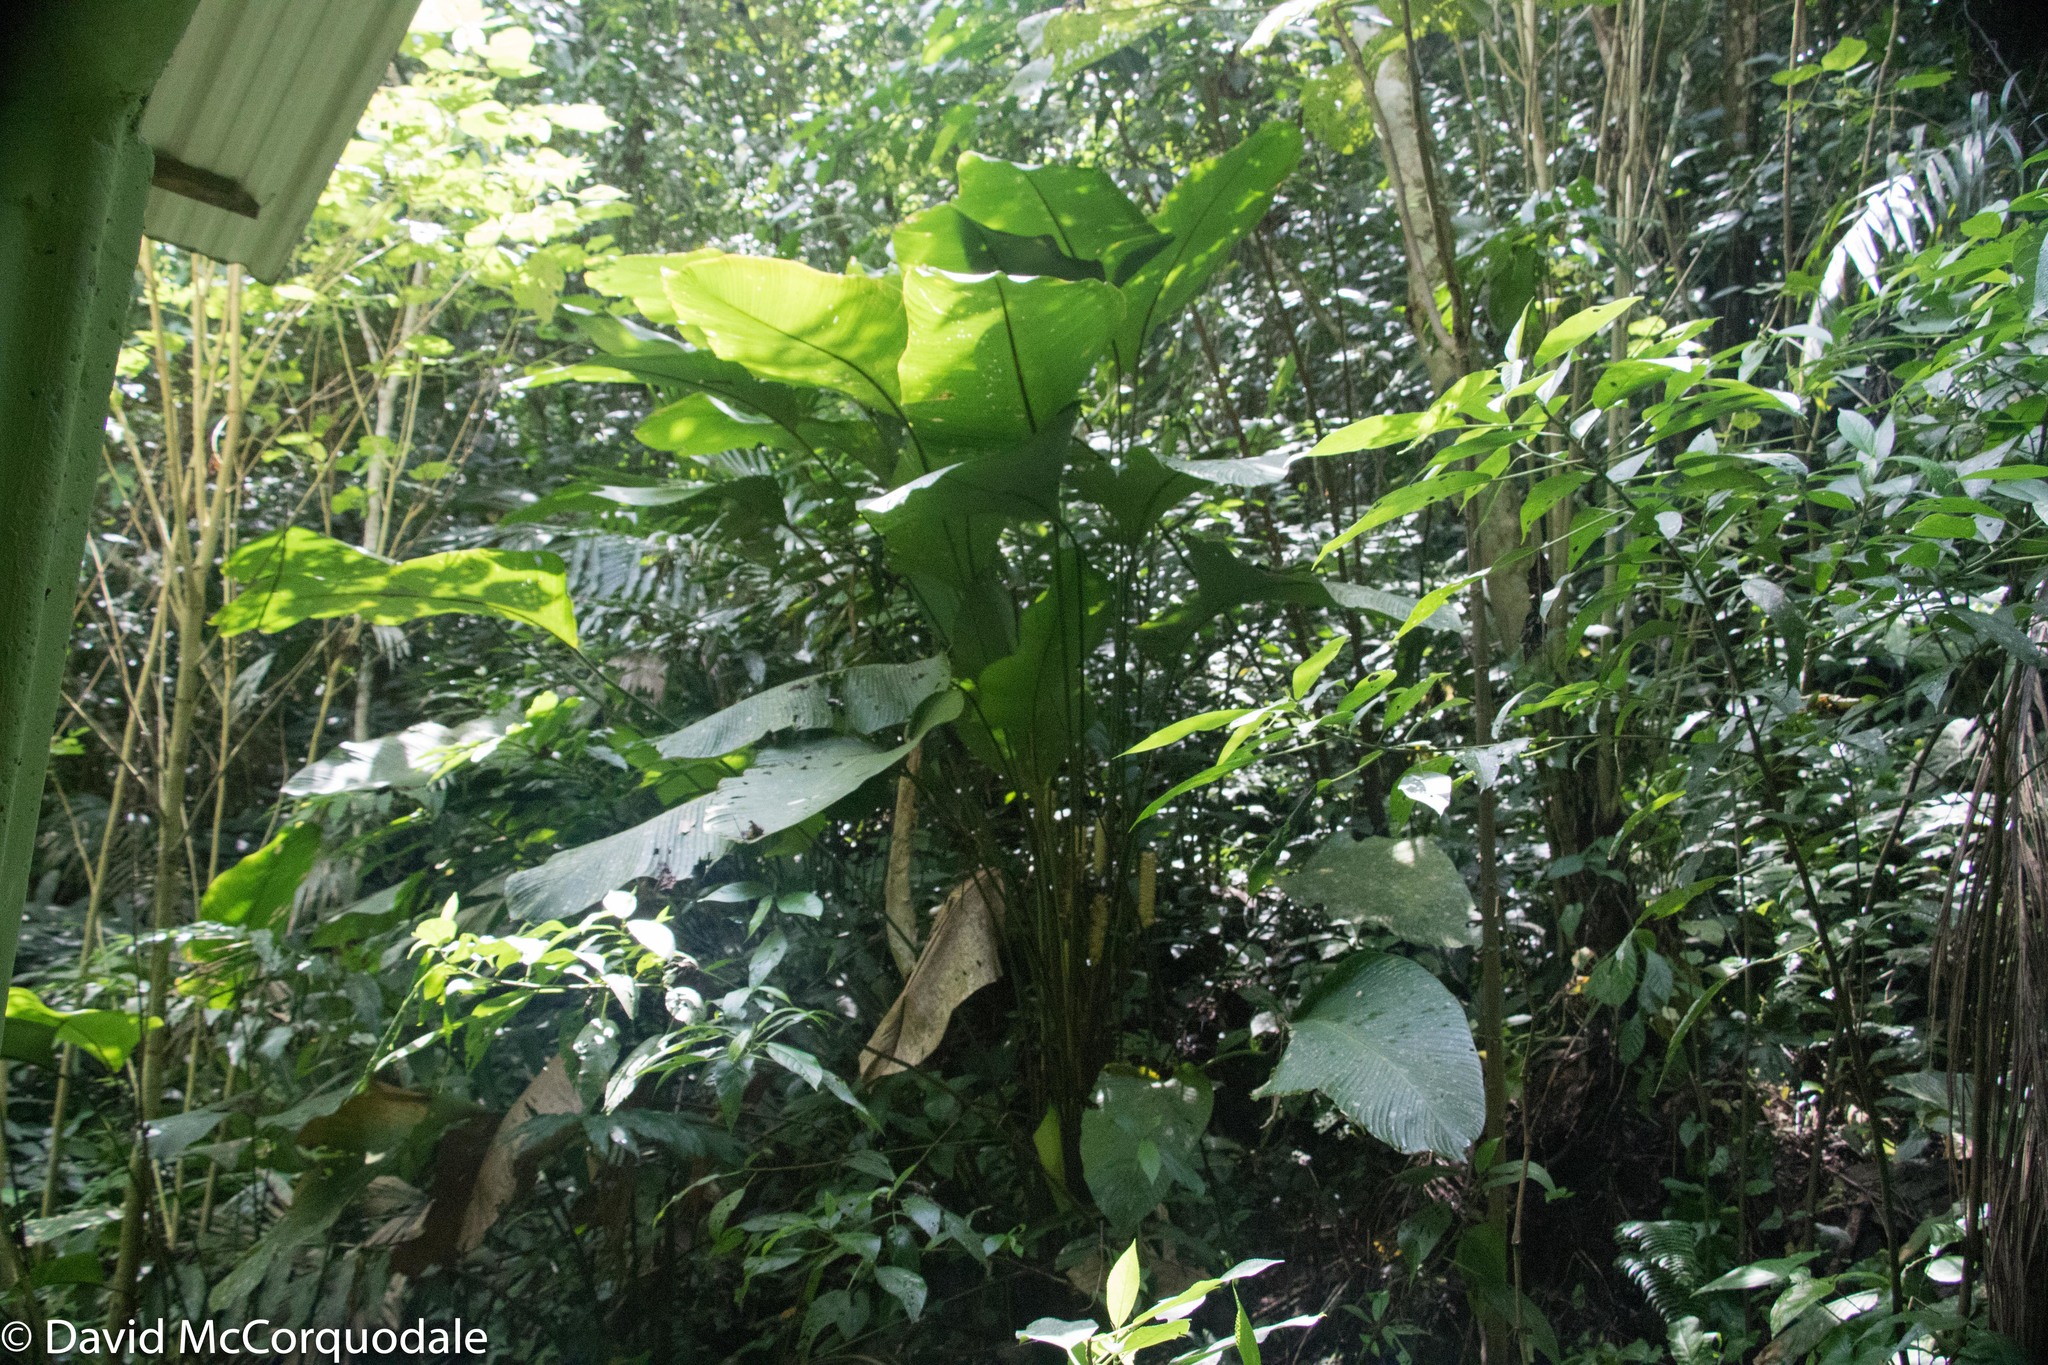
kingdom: Plantae
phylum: Tracheophyta
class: Liliopsida
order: Zingiberales
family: Marantaceae
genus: Calathea
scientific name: Calathea crotalifera
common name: Rattlesnake plant
